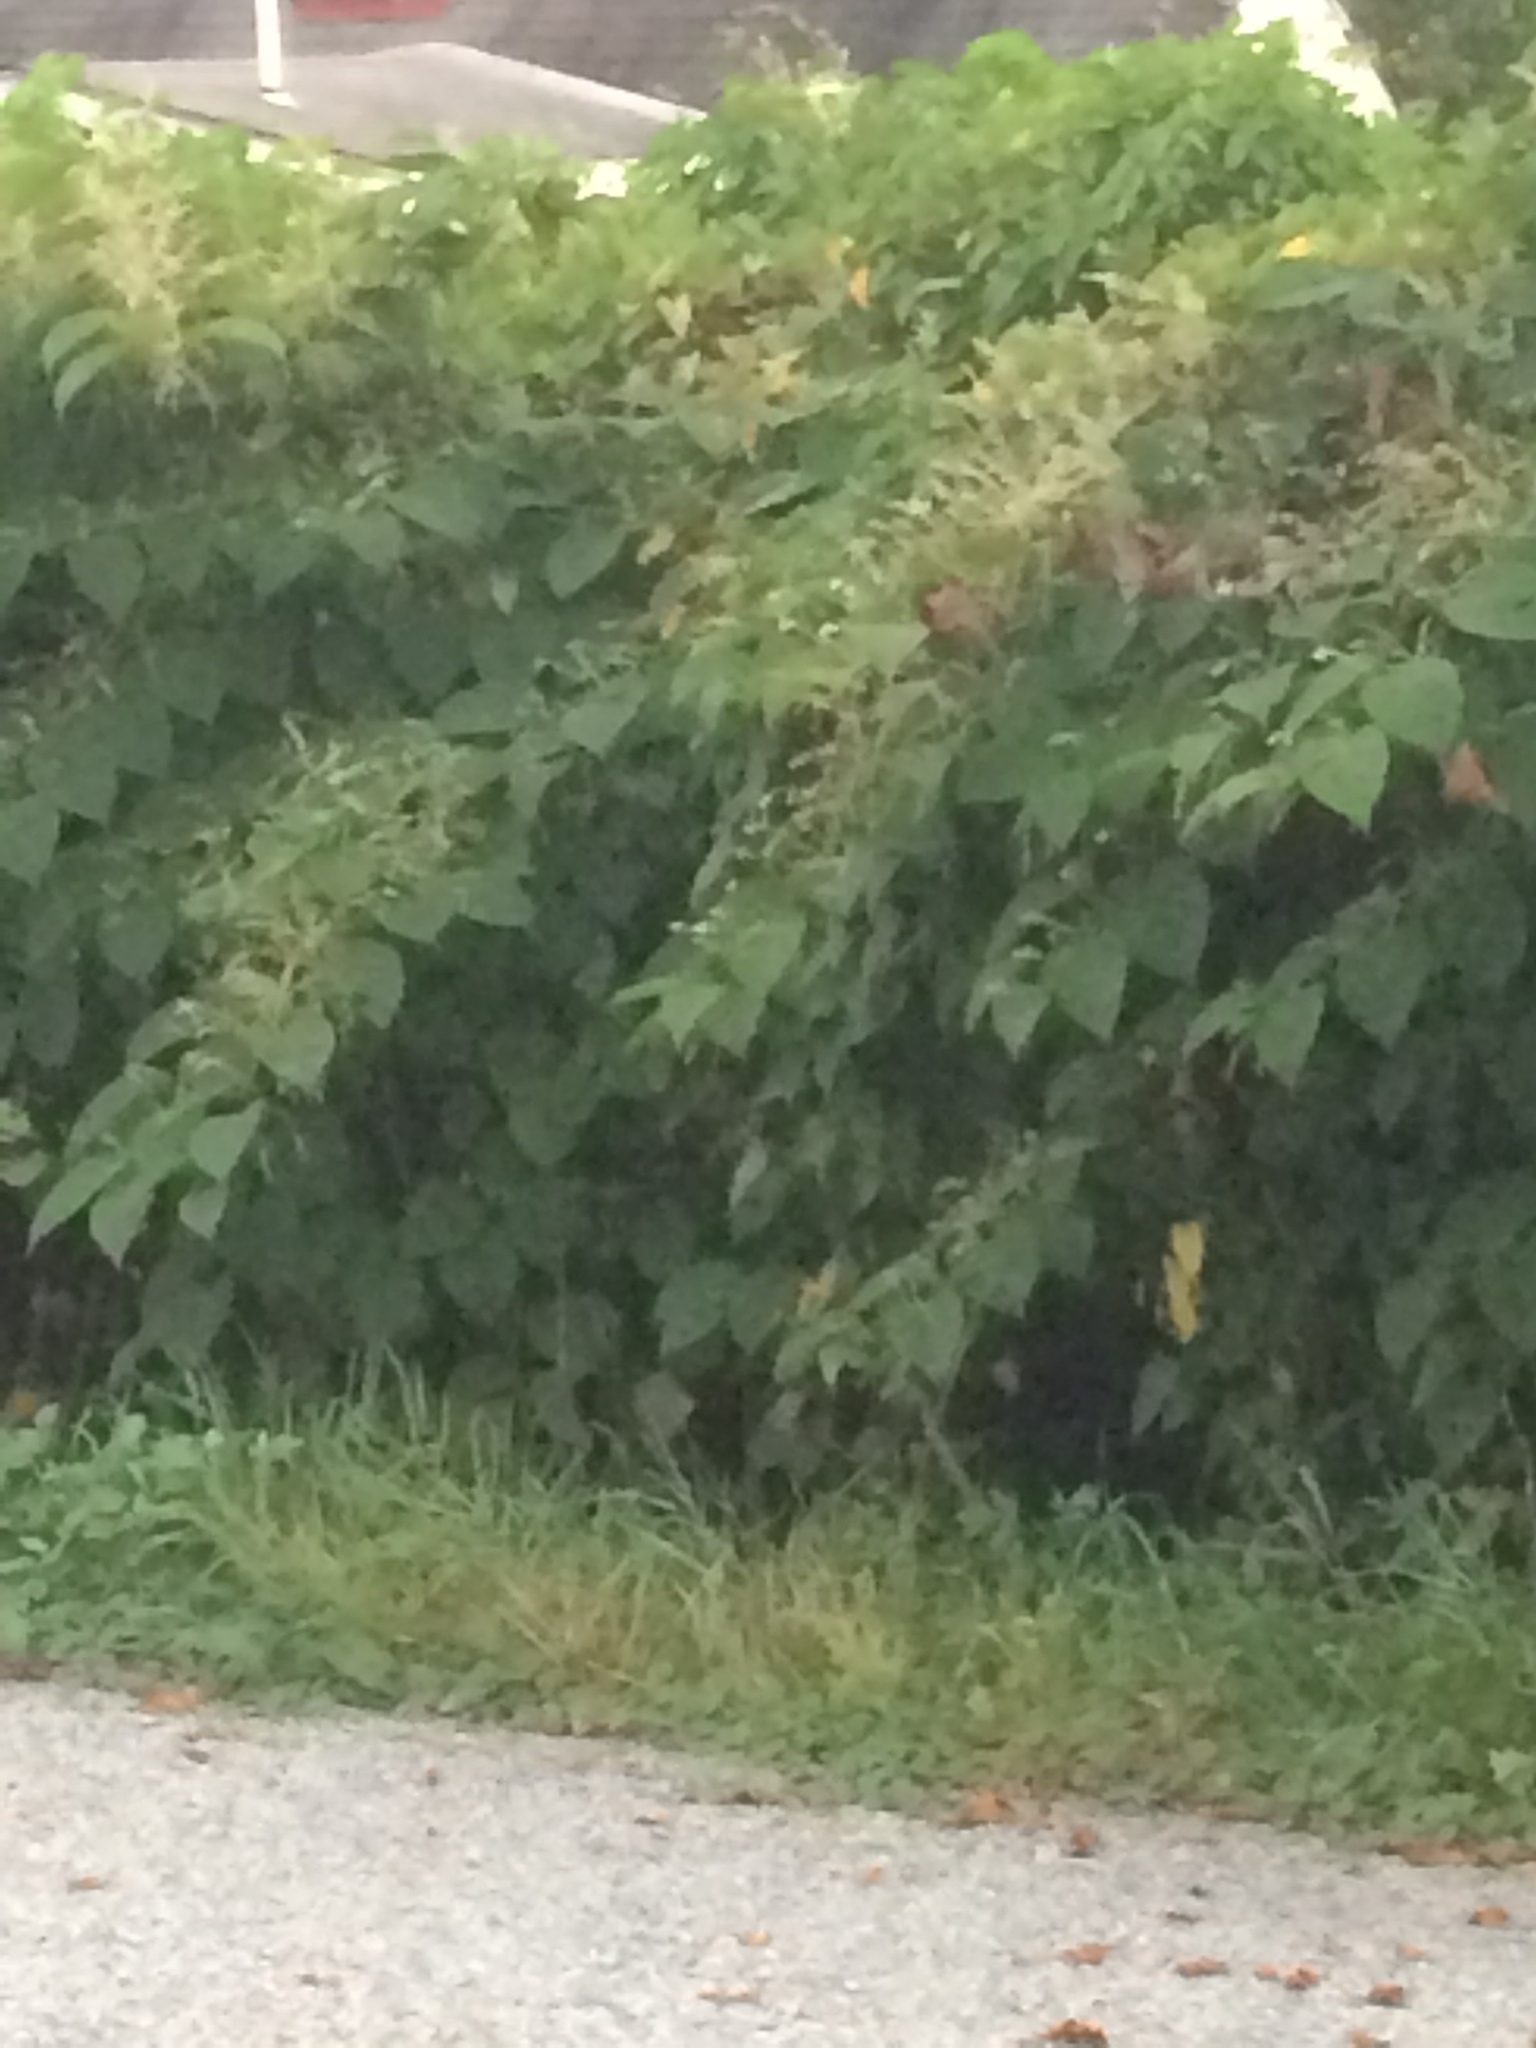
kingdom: Plantae
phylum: Tracheophyta
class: Magnoliopsida
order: Caryophyllales
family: Polygonaceae
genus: Reynoutria
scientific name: Reynoutria japonica
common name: Japanese knotweed
